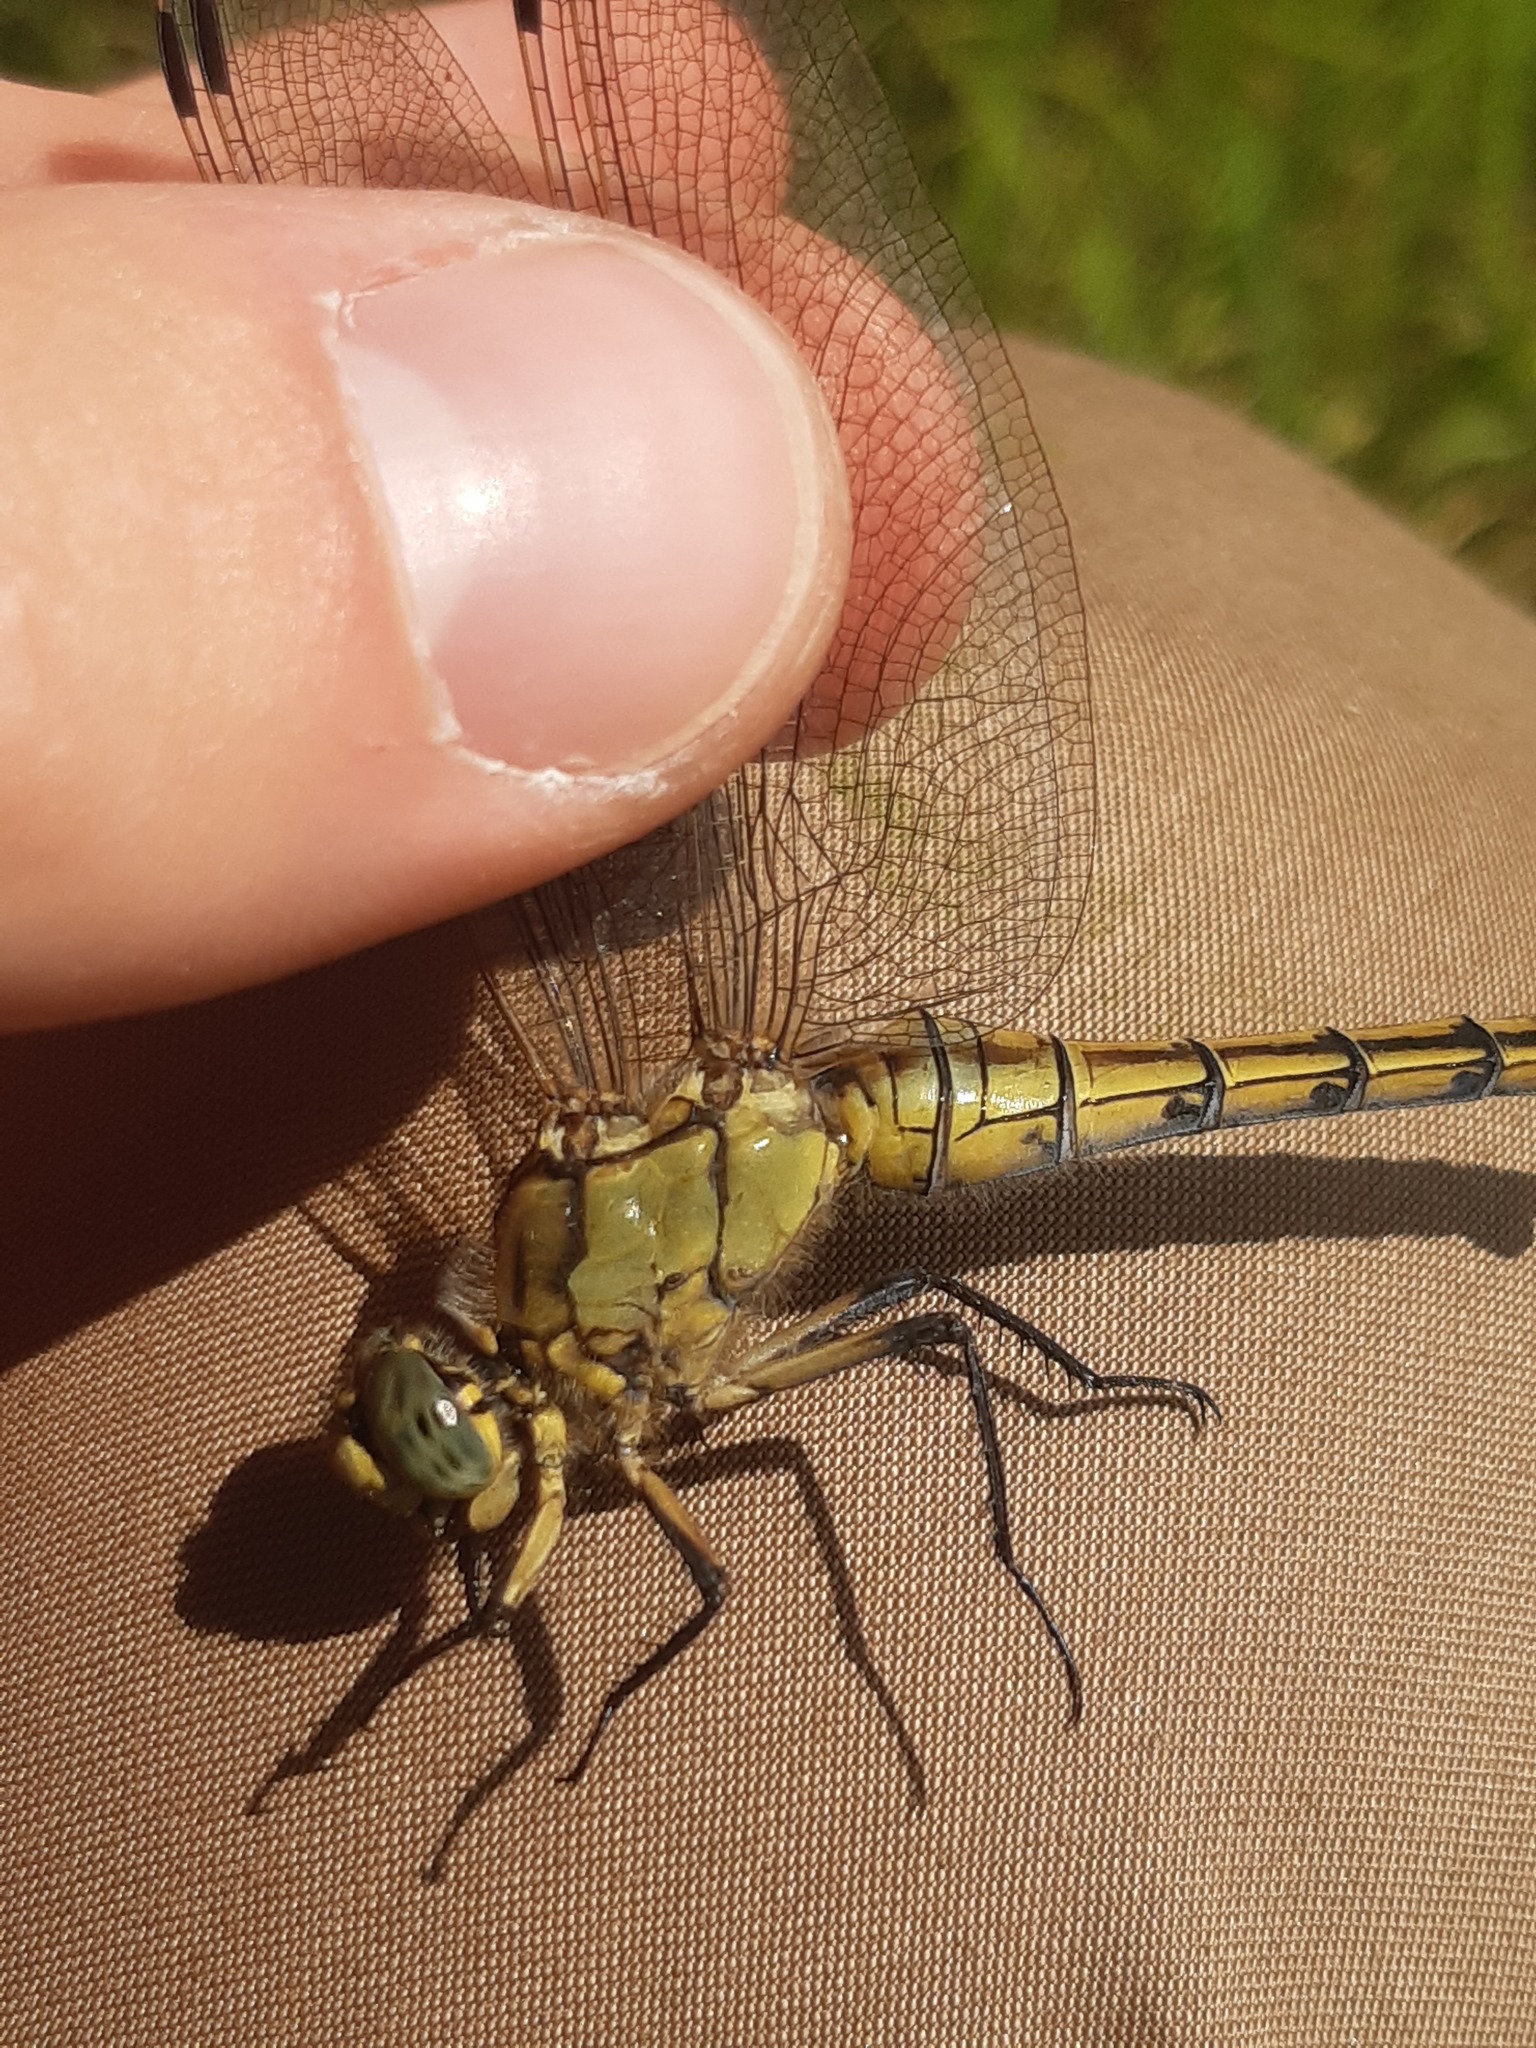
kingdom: Animalia
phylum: Arthropoda
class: Insecta
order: Odonata
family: Libellulidae
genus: Orthetrum
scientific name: Orthetrum cancellatum
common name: Black-tailed skimmer
